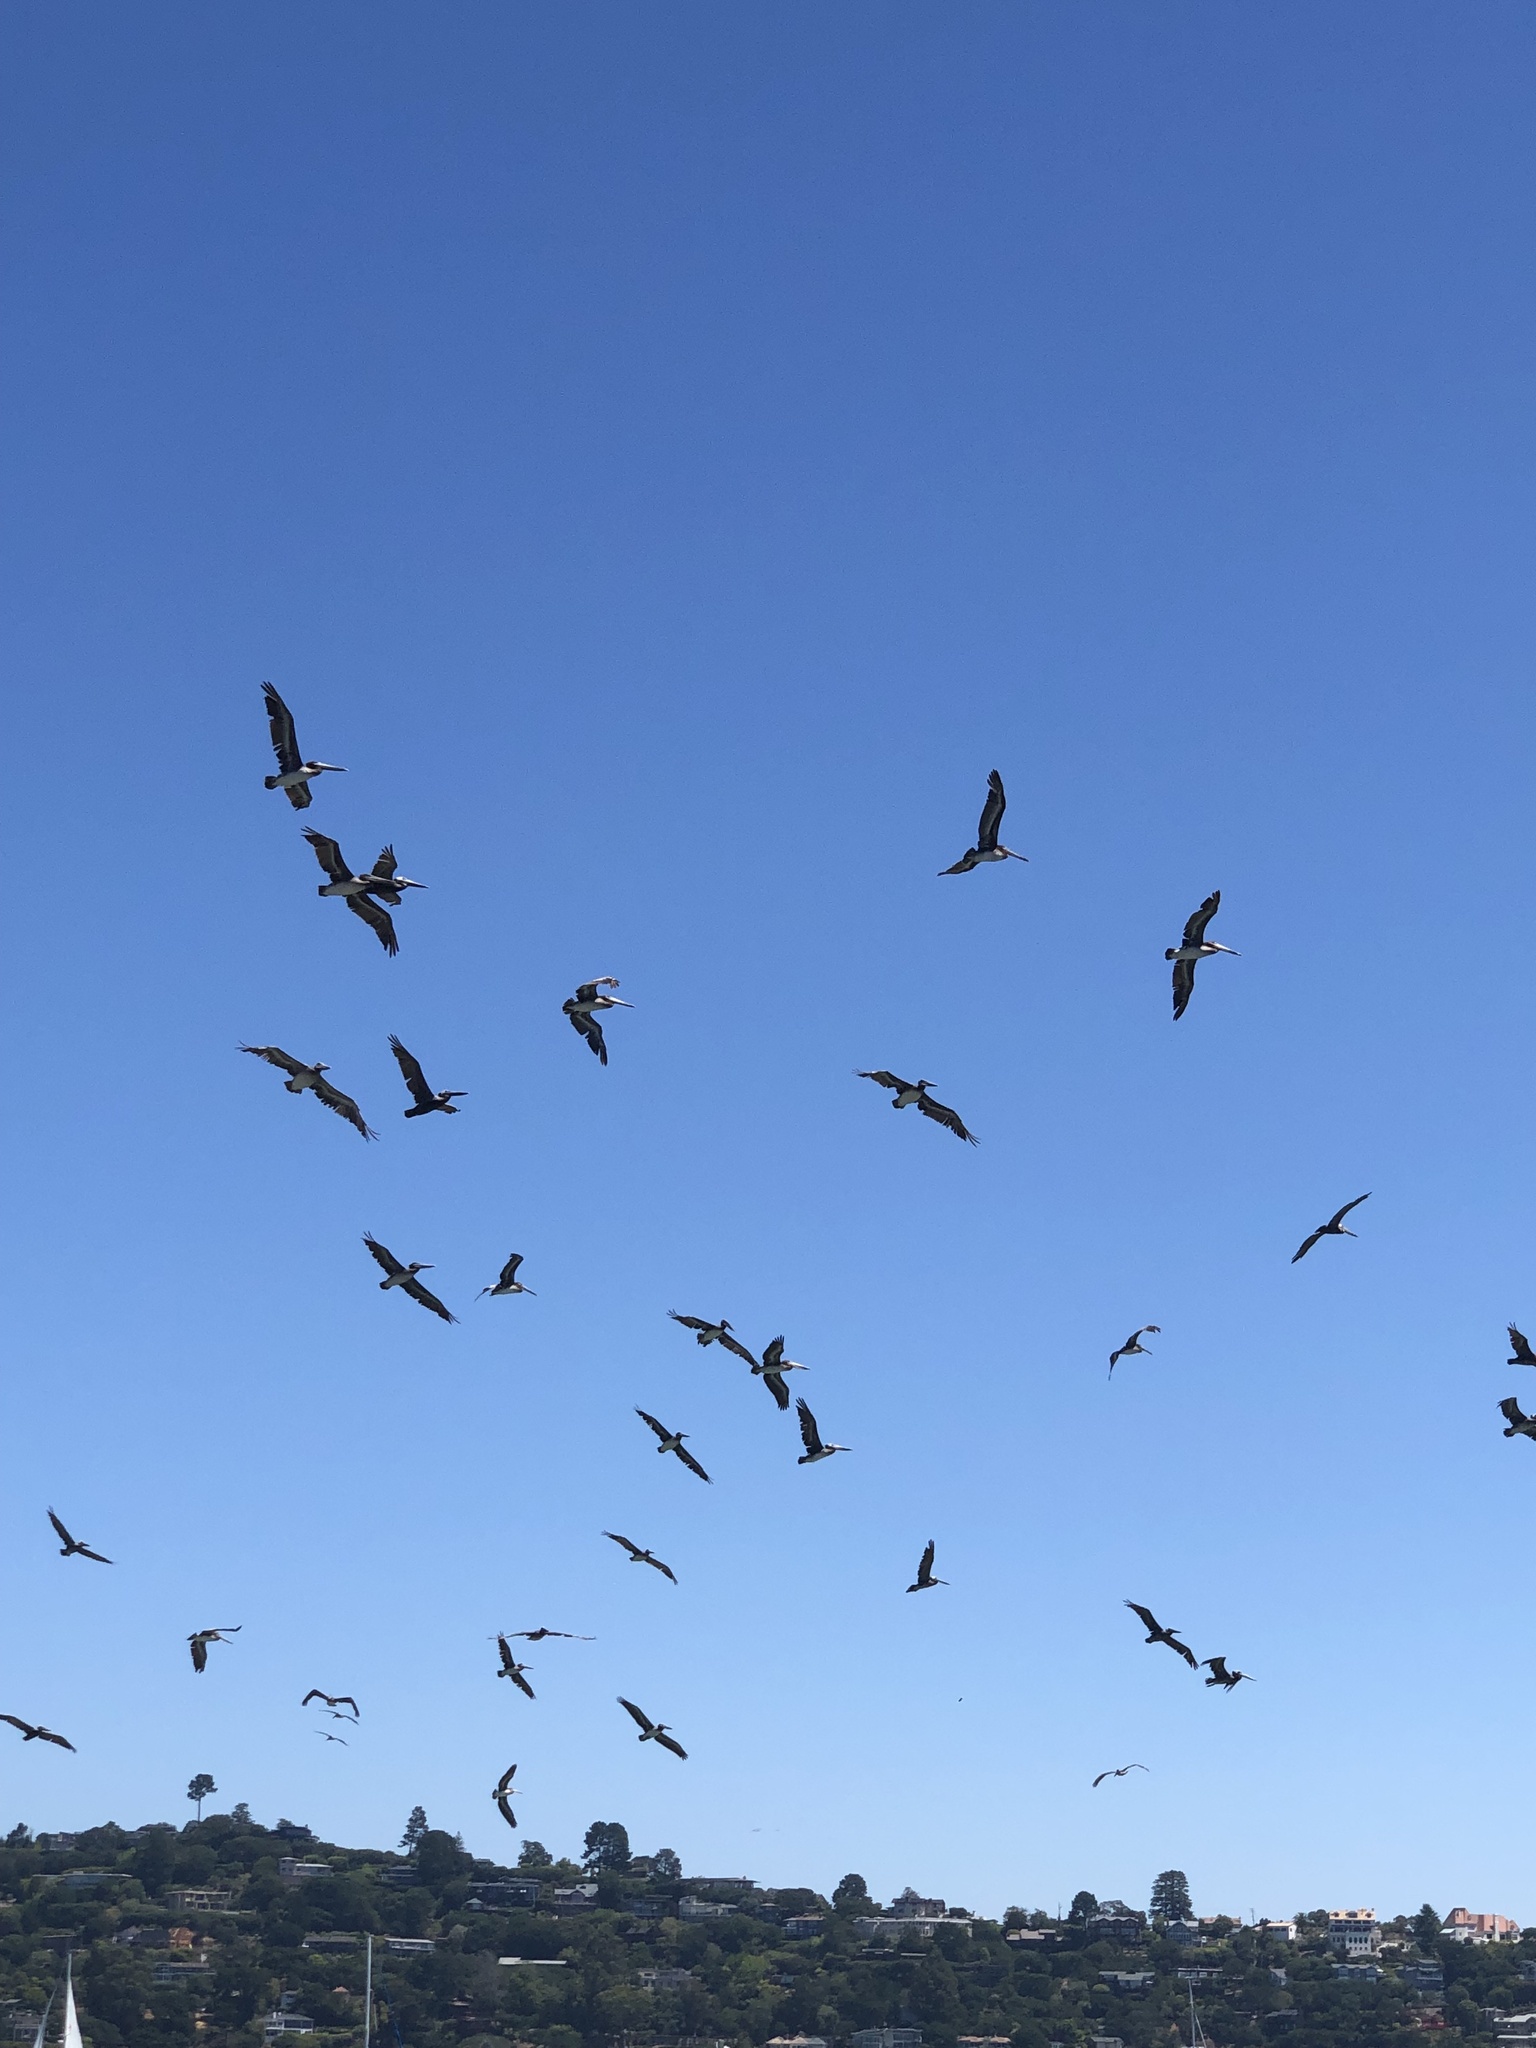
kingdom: Animalia
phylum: Chordata
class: Aves
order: Pelecaniformes
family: Pelecanidae
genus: Pelecanus
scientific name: Pelecanus occidentalis
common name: Brown pelican
